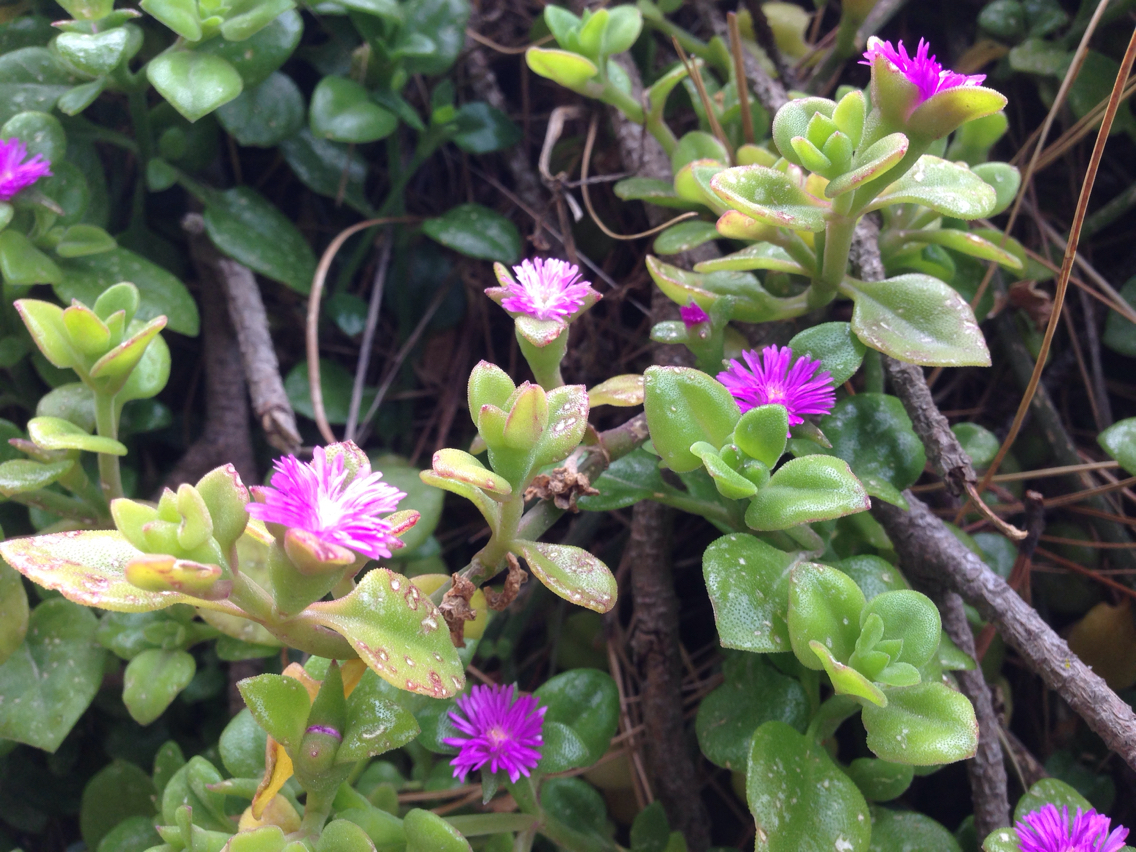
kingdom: Plantae
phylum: Tracheophyta
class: Magnoliopsida
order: Caryophyllales
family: Aizoaceae
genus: Mesembryanthemum
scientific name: Mesembryanthemum cordifolium
